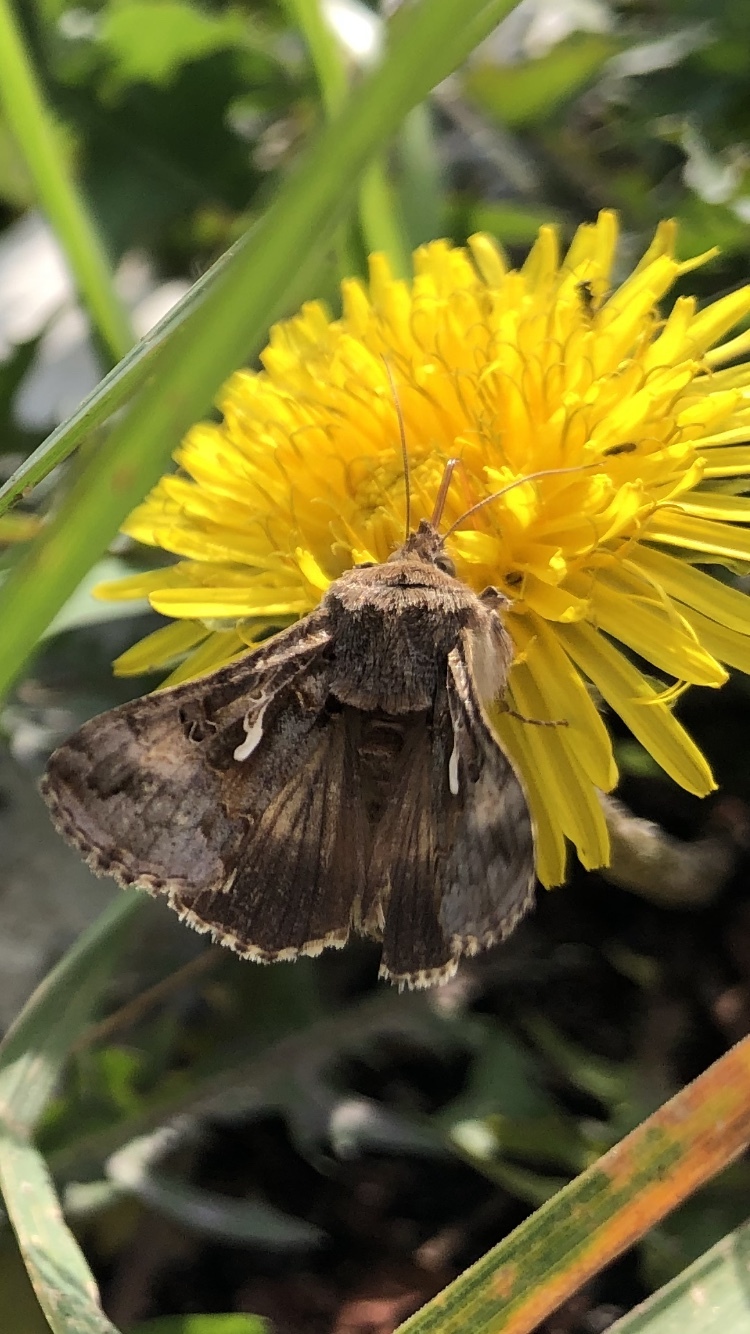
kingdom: Animalia
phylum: Arthropoda
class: Insecta
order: Lepidoptera
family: Noctuidae
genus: Autographa
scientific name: Autographa gamma
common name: Silver y
